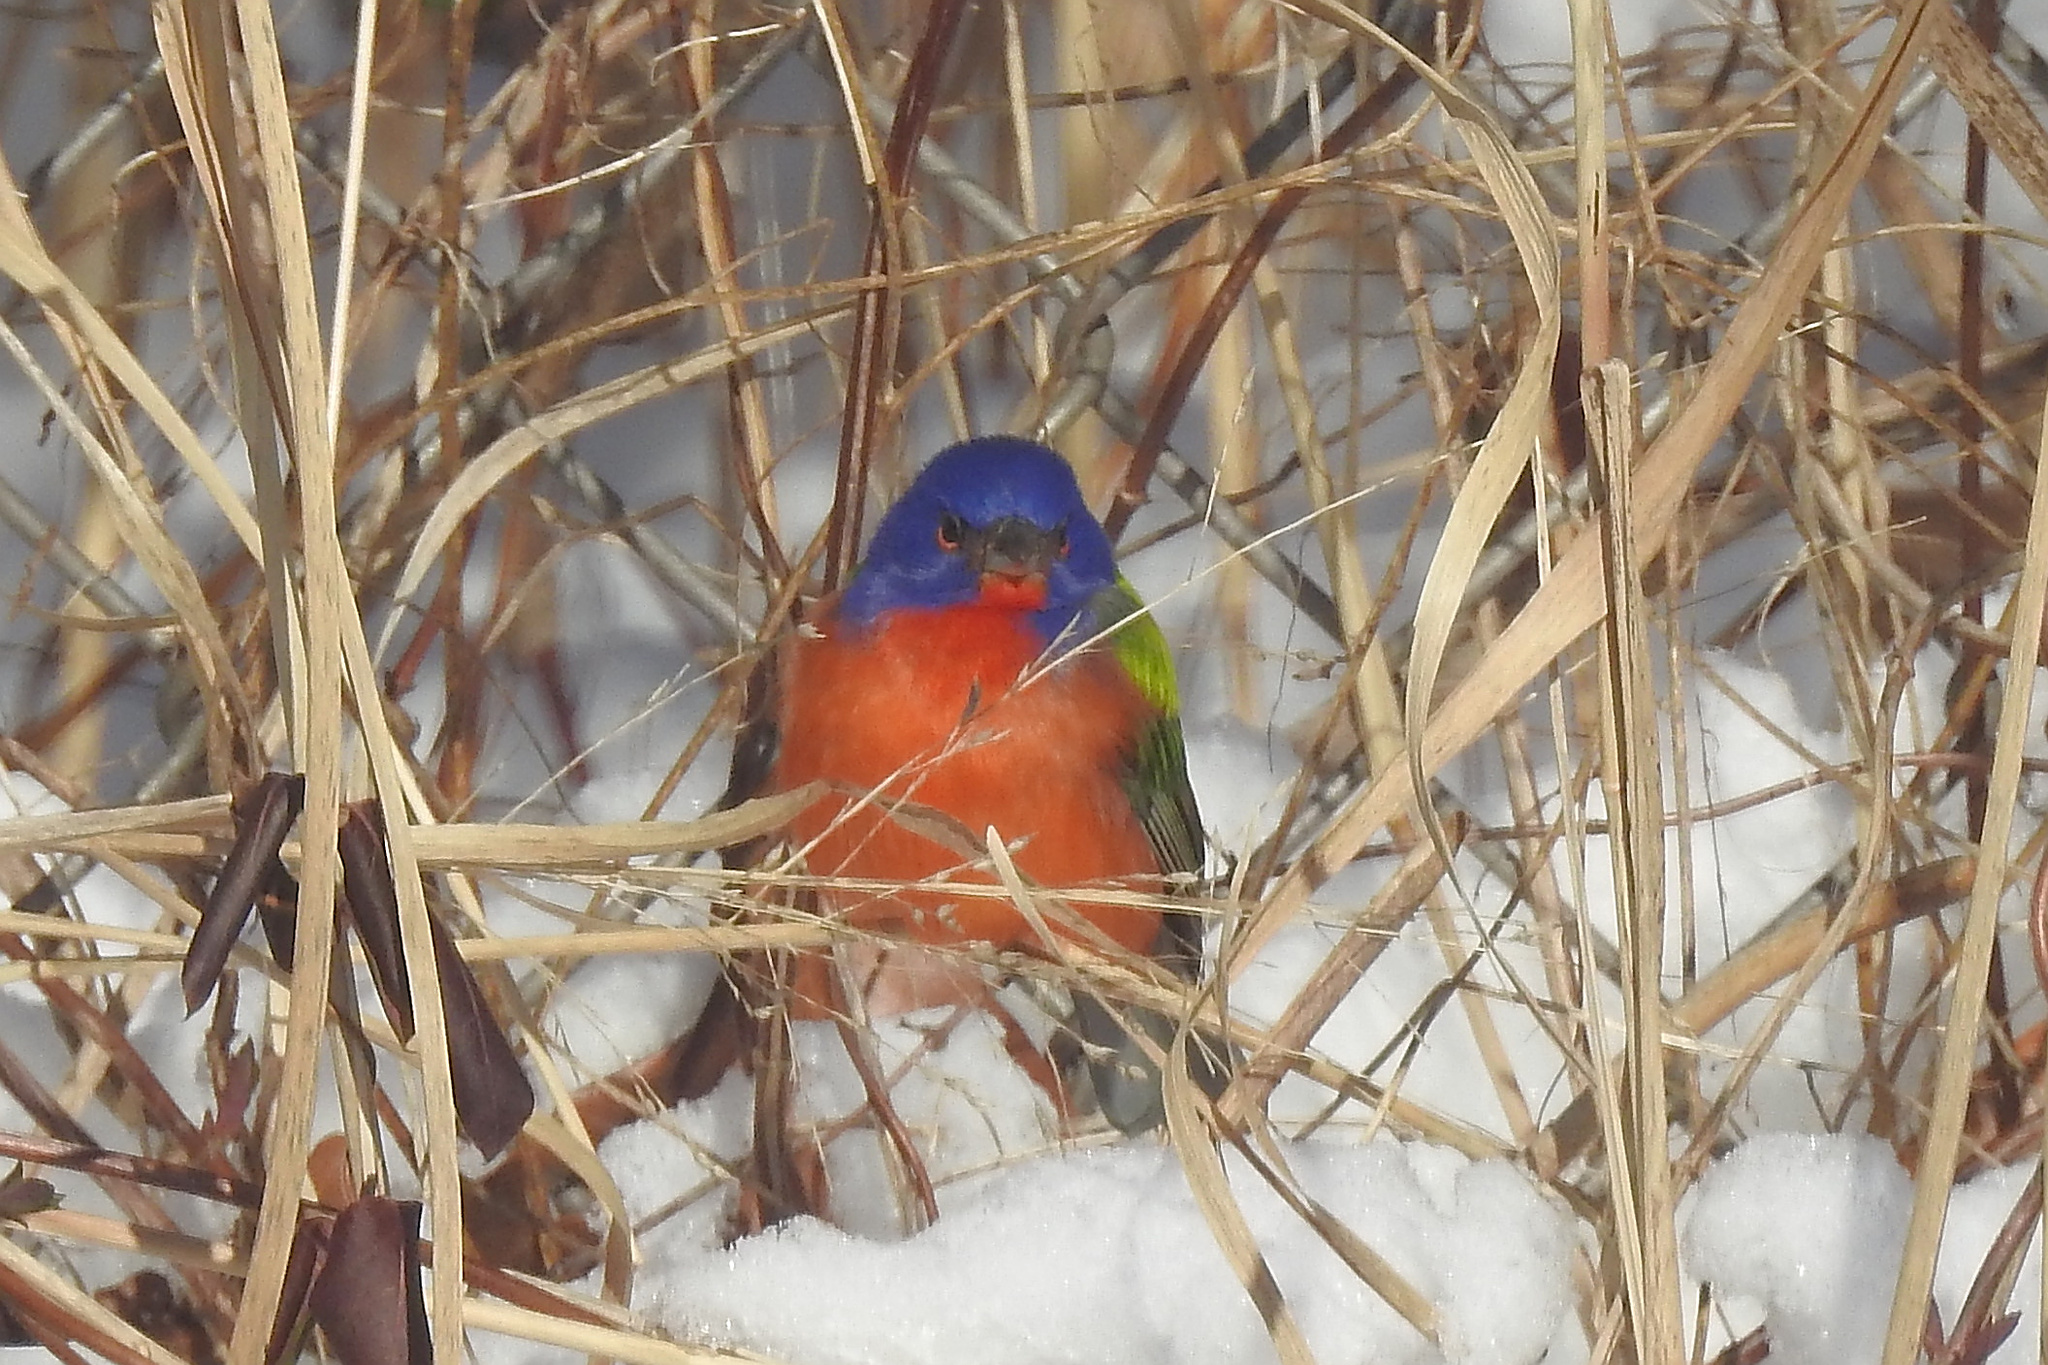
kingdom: Animalia
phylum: Chordata
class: Aves
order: Passeriformes
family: Cardinalidae
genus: Passerina
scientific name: Passerina ciris
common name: Painted bunting
